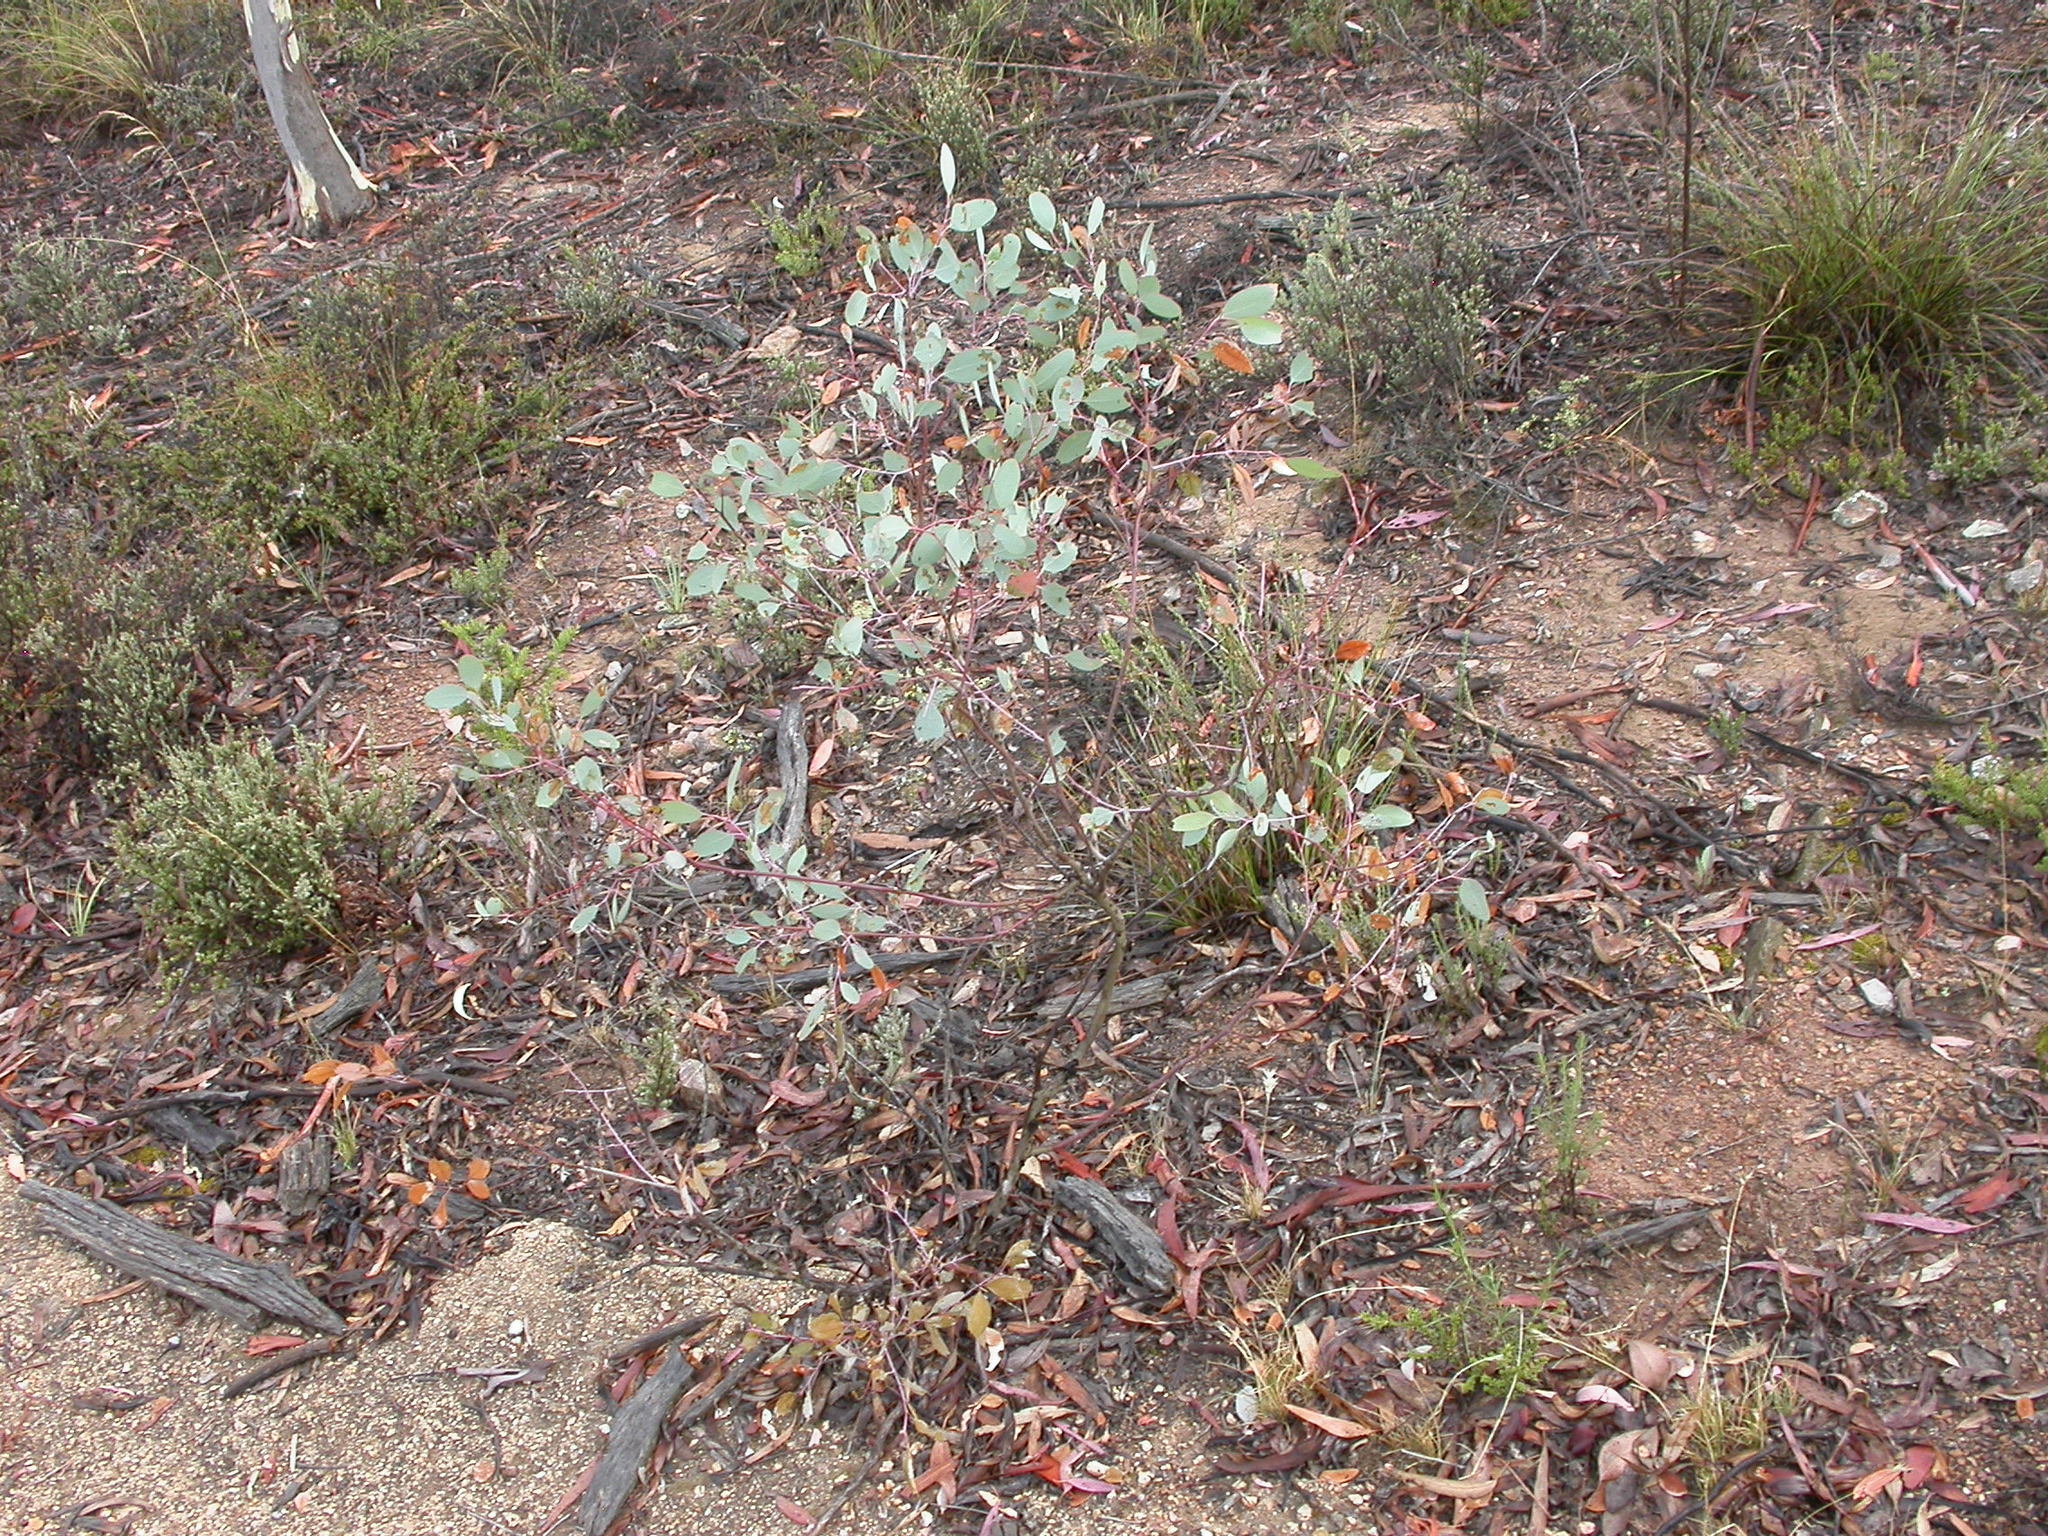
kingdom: Plantae
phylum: Tracheophyta
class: Magnoliopsida
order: Myrtales
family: Myrtaceae
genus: Eucalyptus
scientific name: Eucalyptus
